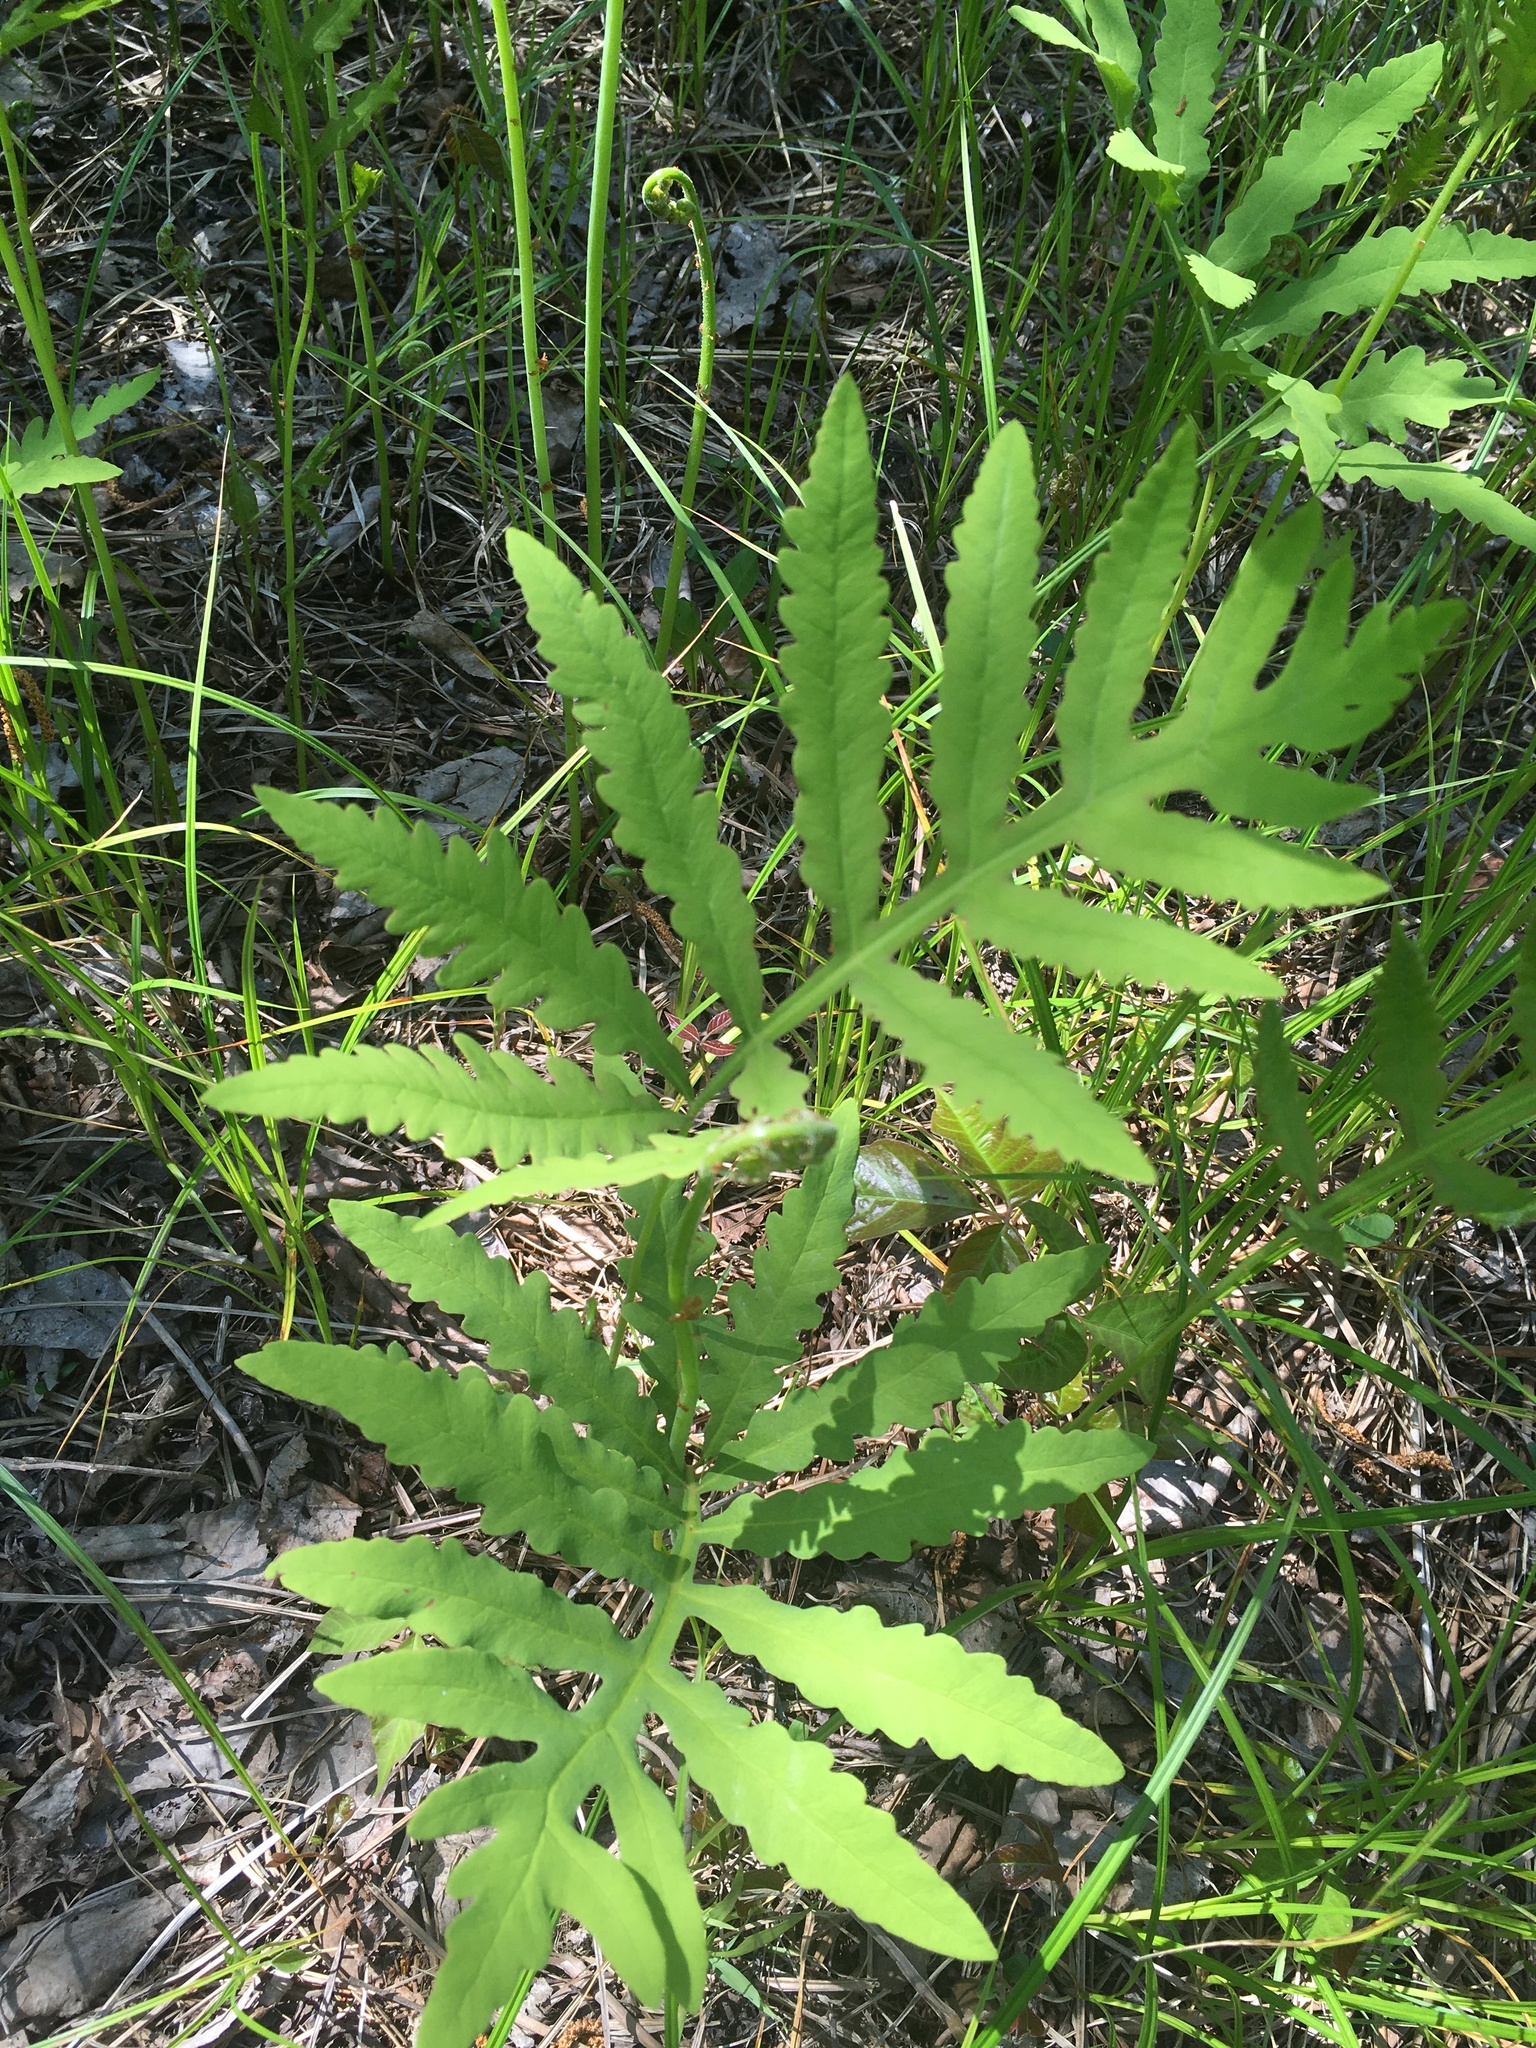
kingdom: Plantae
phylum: Tracheophyta
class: Polypodiopsida
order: Polypodiales
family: Onocleaceae
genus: Onoclea
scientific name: Onoclea sensibilis
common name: Sensitive fern
